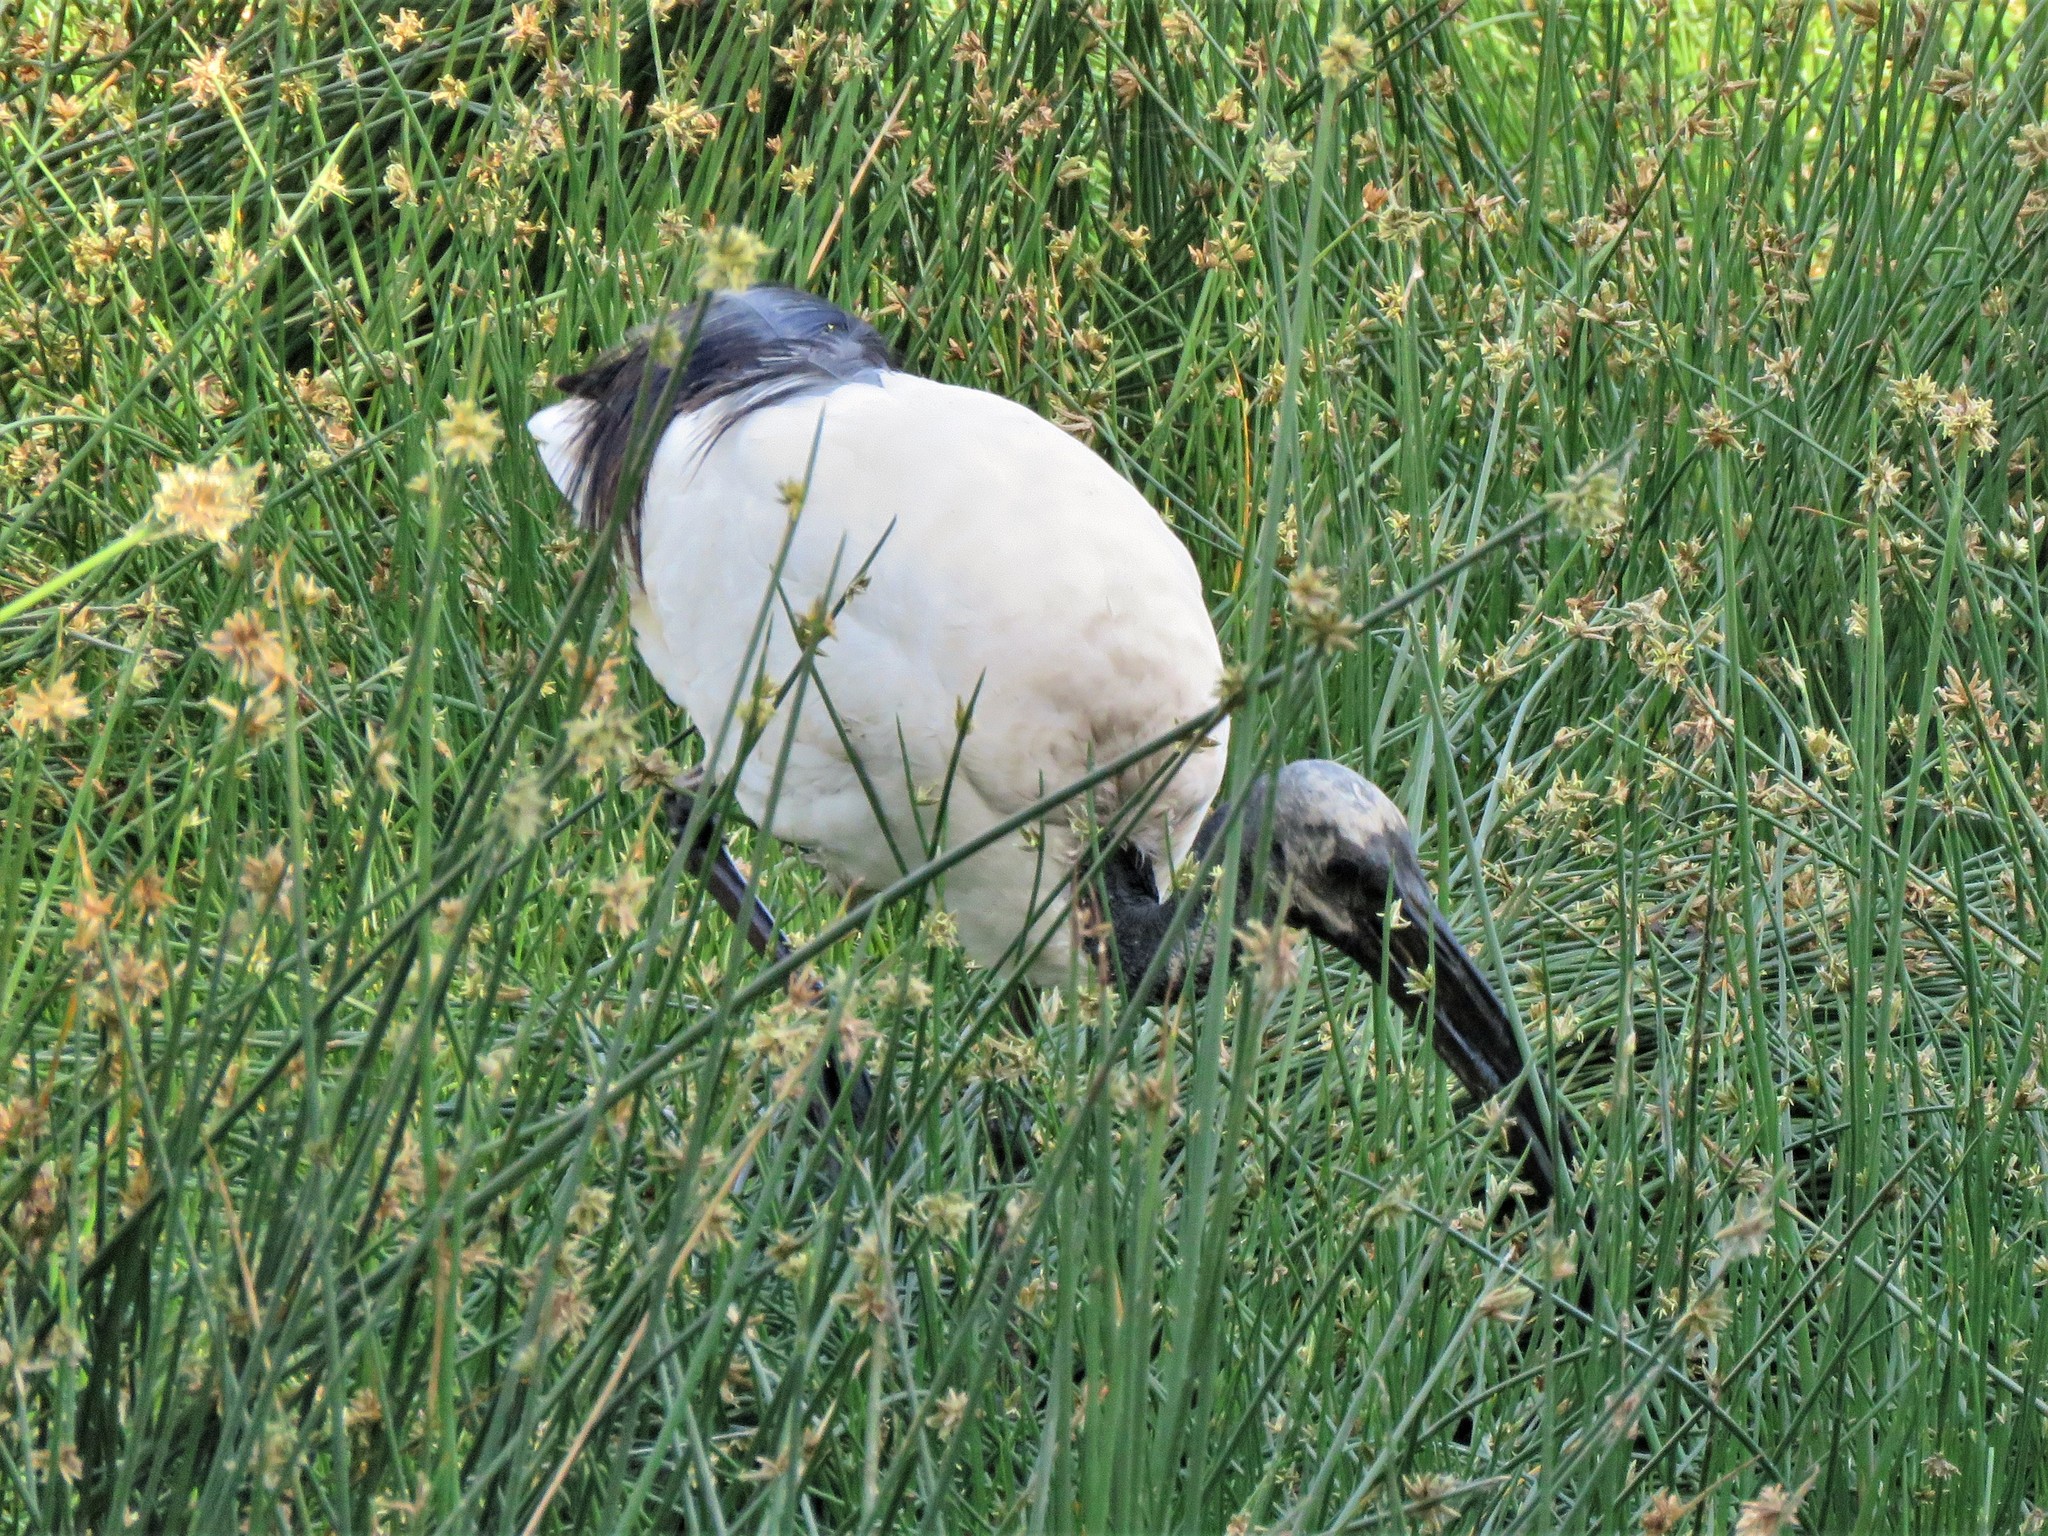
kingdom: Animalia
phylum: Chordata
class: Aves
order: Pelecaniformes
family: Threskiornithidae
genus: Threskiornis
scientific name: Threskiornis aethiopicus
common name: Sacred ibis
